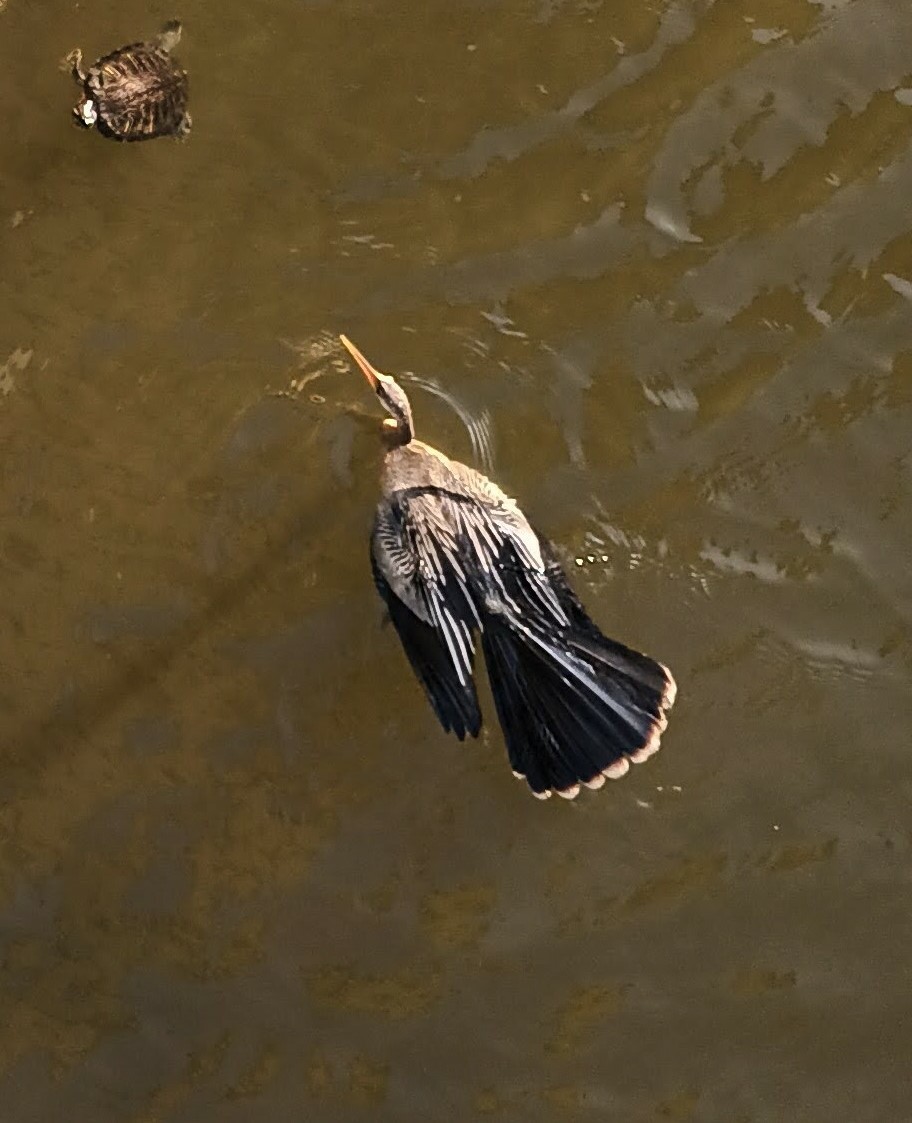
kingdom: Animalia
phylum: Chordata
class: Aves
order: Suliformes
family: Anhingidae
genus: Anhinga
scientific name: Anhinga anhinga
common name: Anhinga
